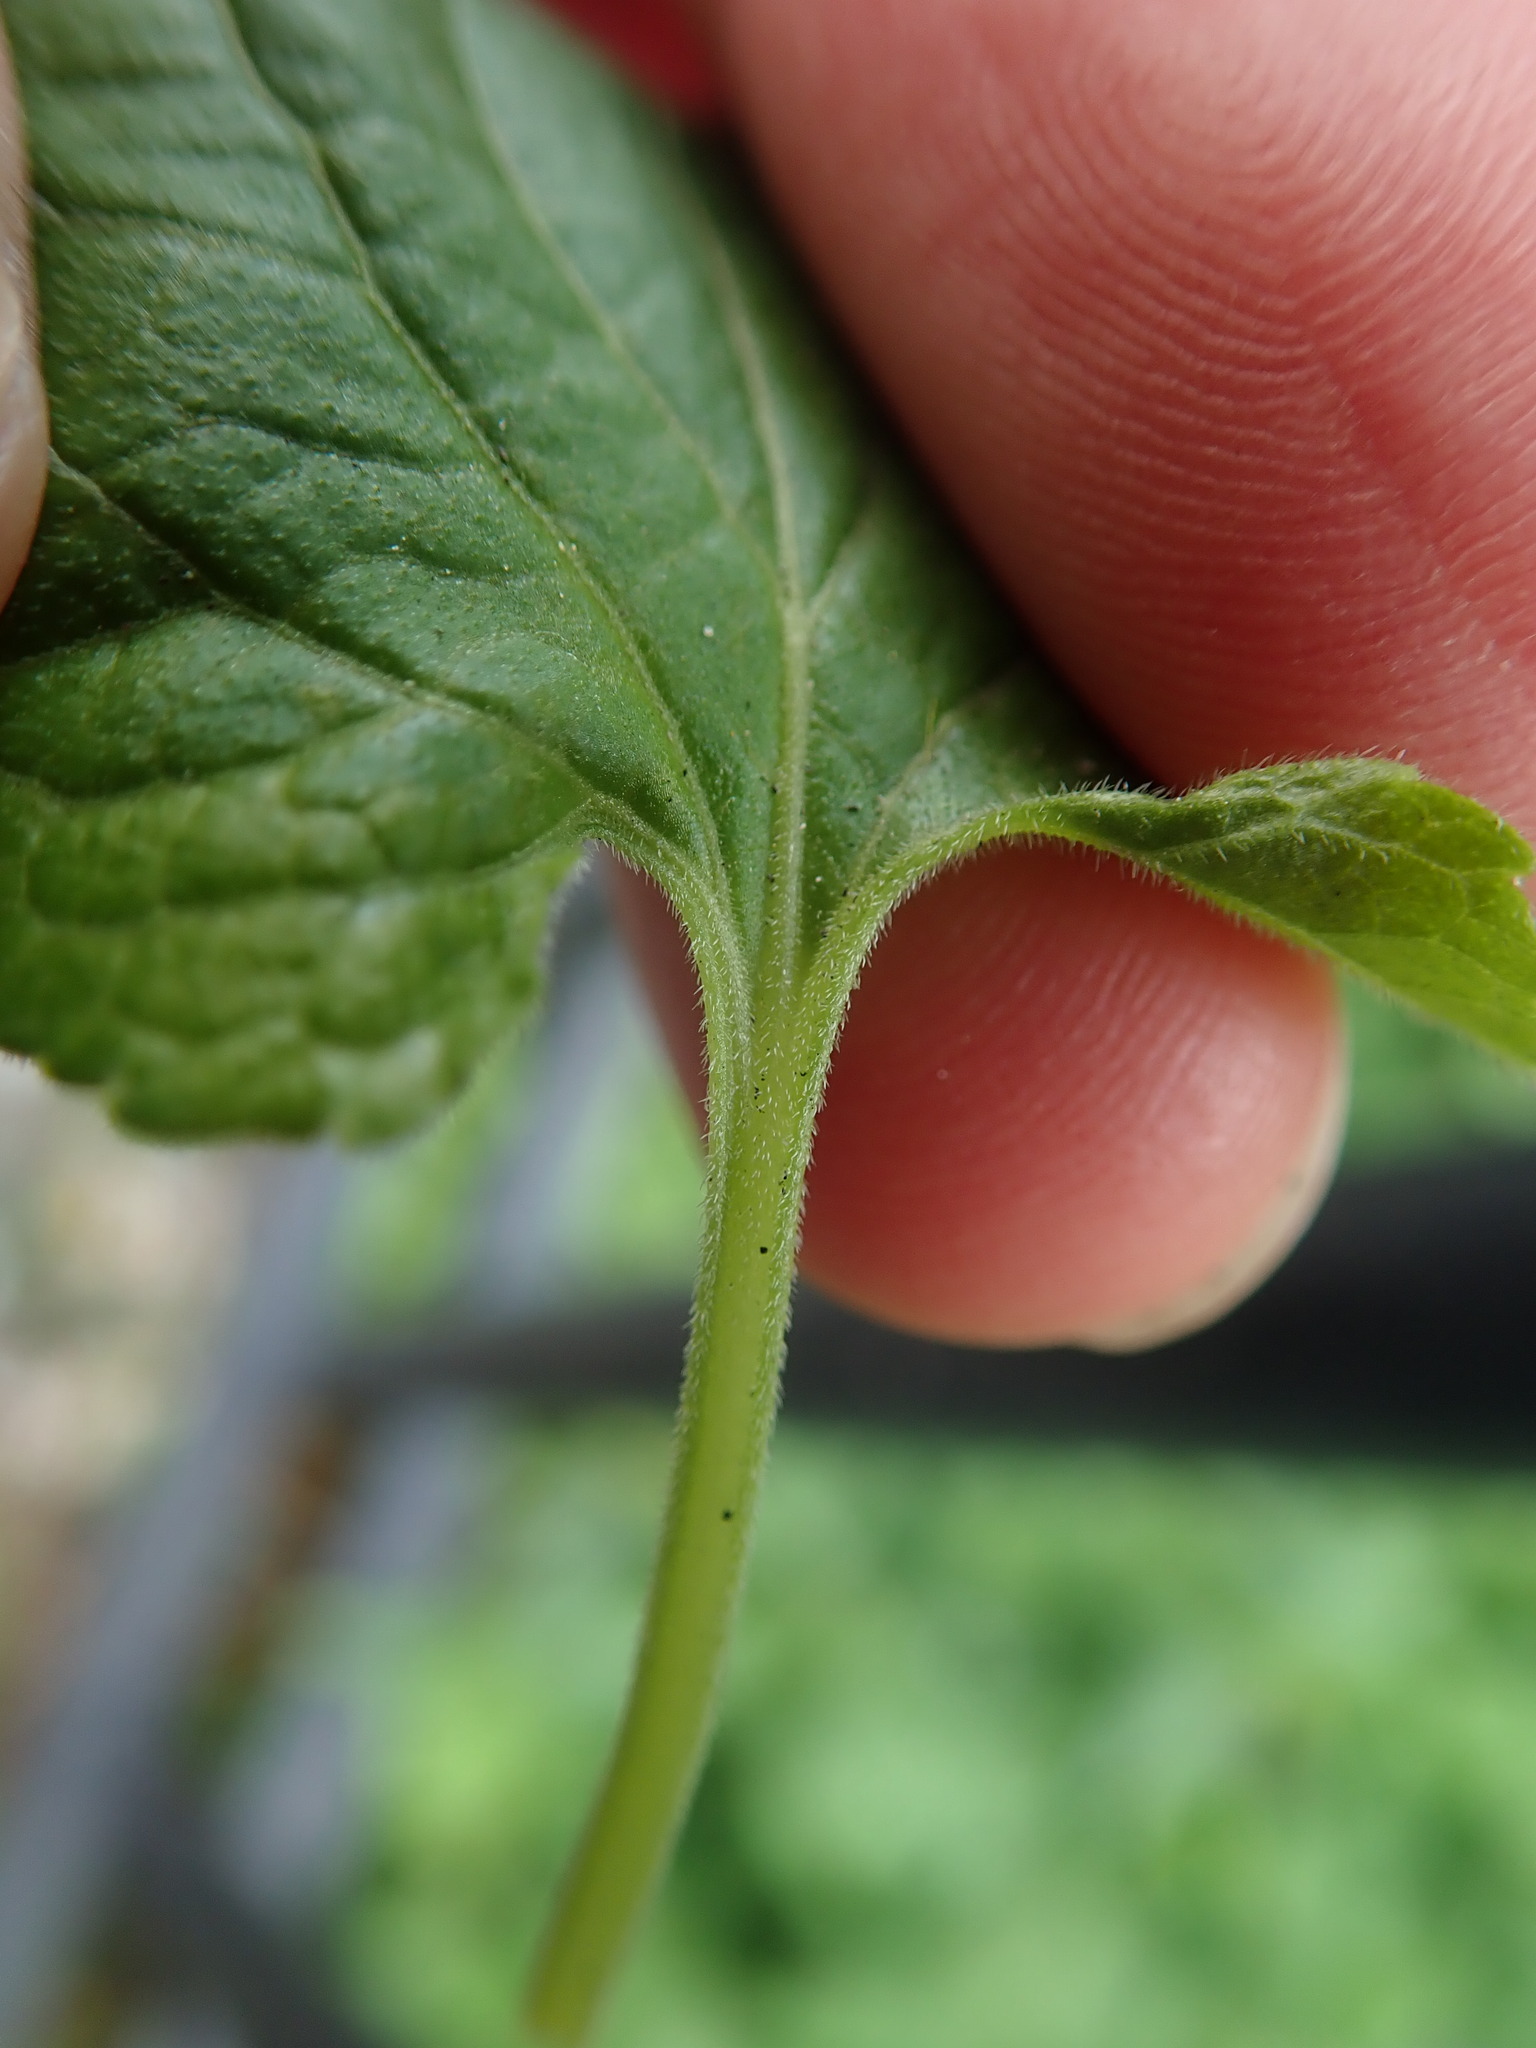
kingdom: Plantae
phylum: Tracheophyta
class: Magnoliopsida
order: Malpighiales
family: Violaceae
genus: Viola
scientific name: Viola odorata
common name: Sweet violet
